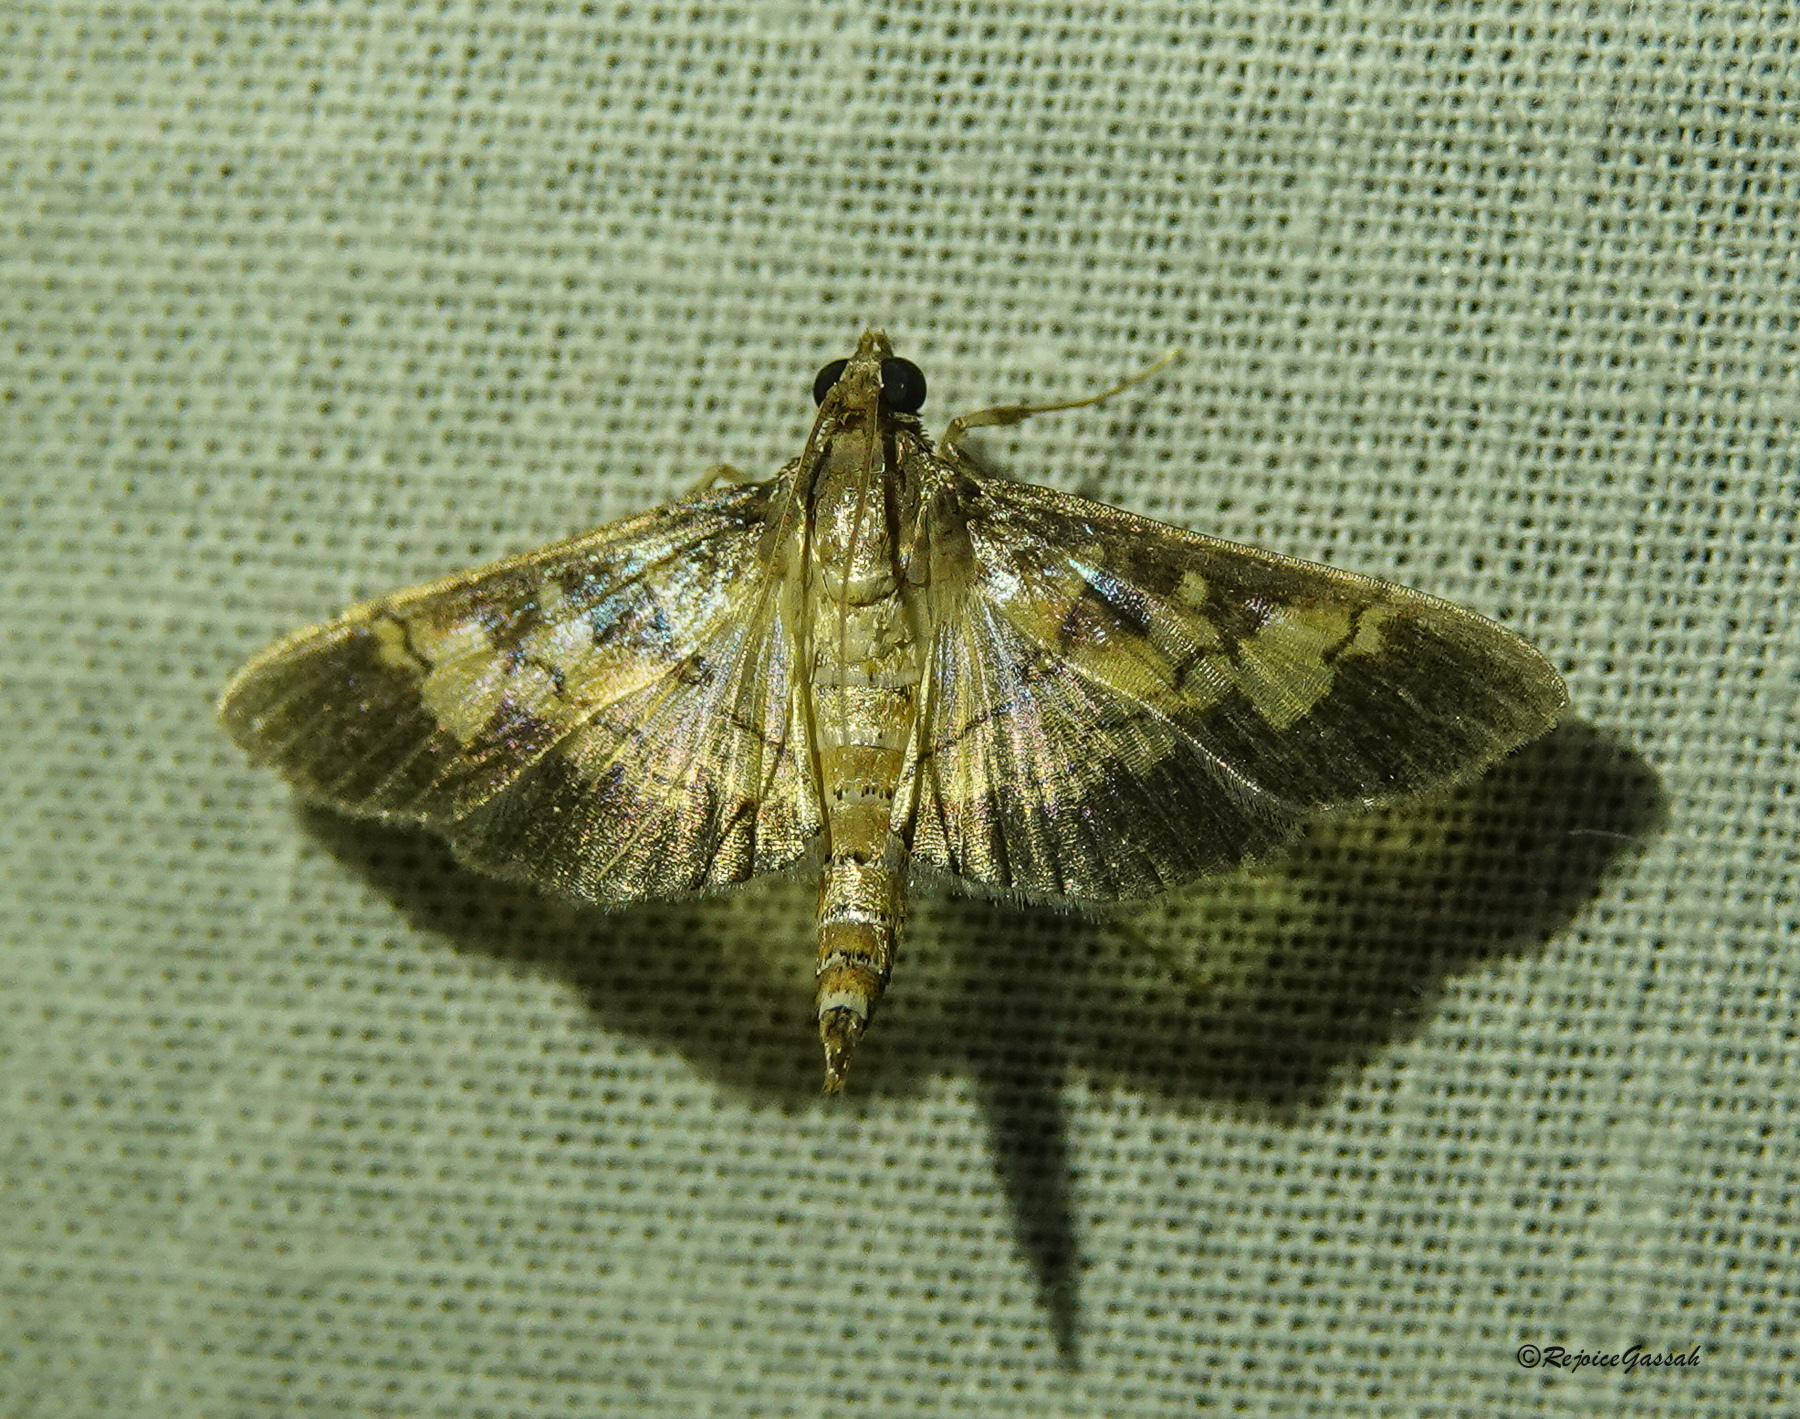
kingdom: Animalia
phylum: Arthropoda
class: Insecta
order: Lepidoptera
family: Crambidae
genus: Uresiphita
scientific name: Uresiphita quinquigera
